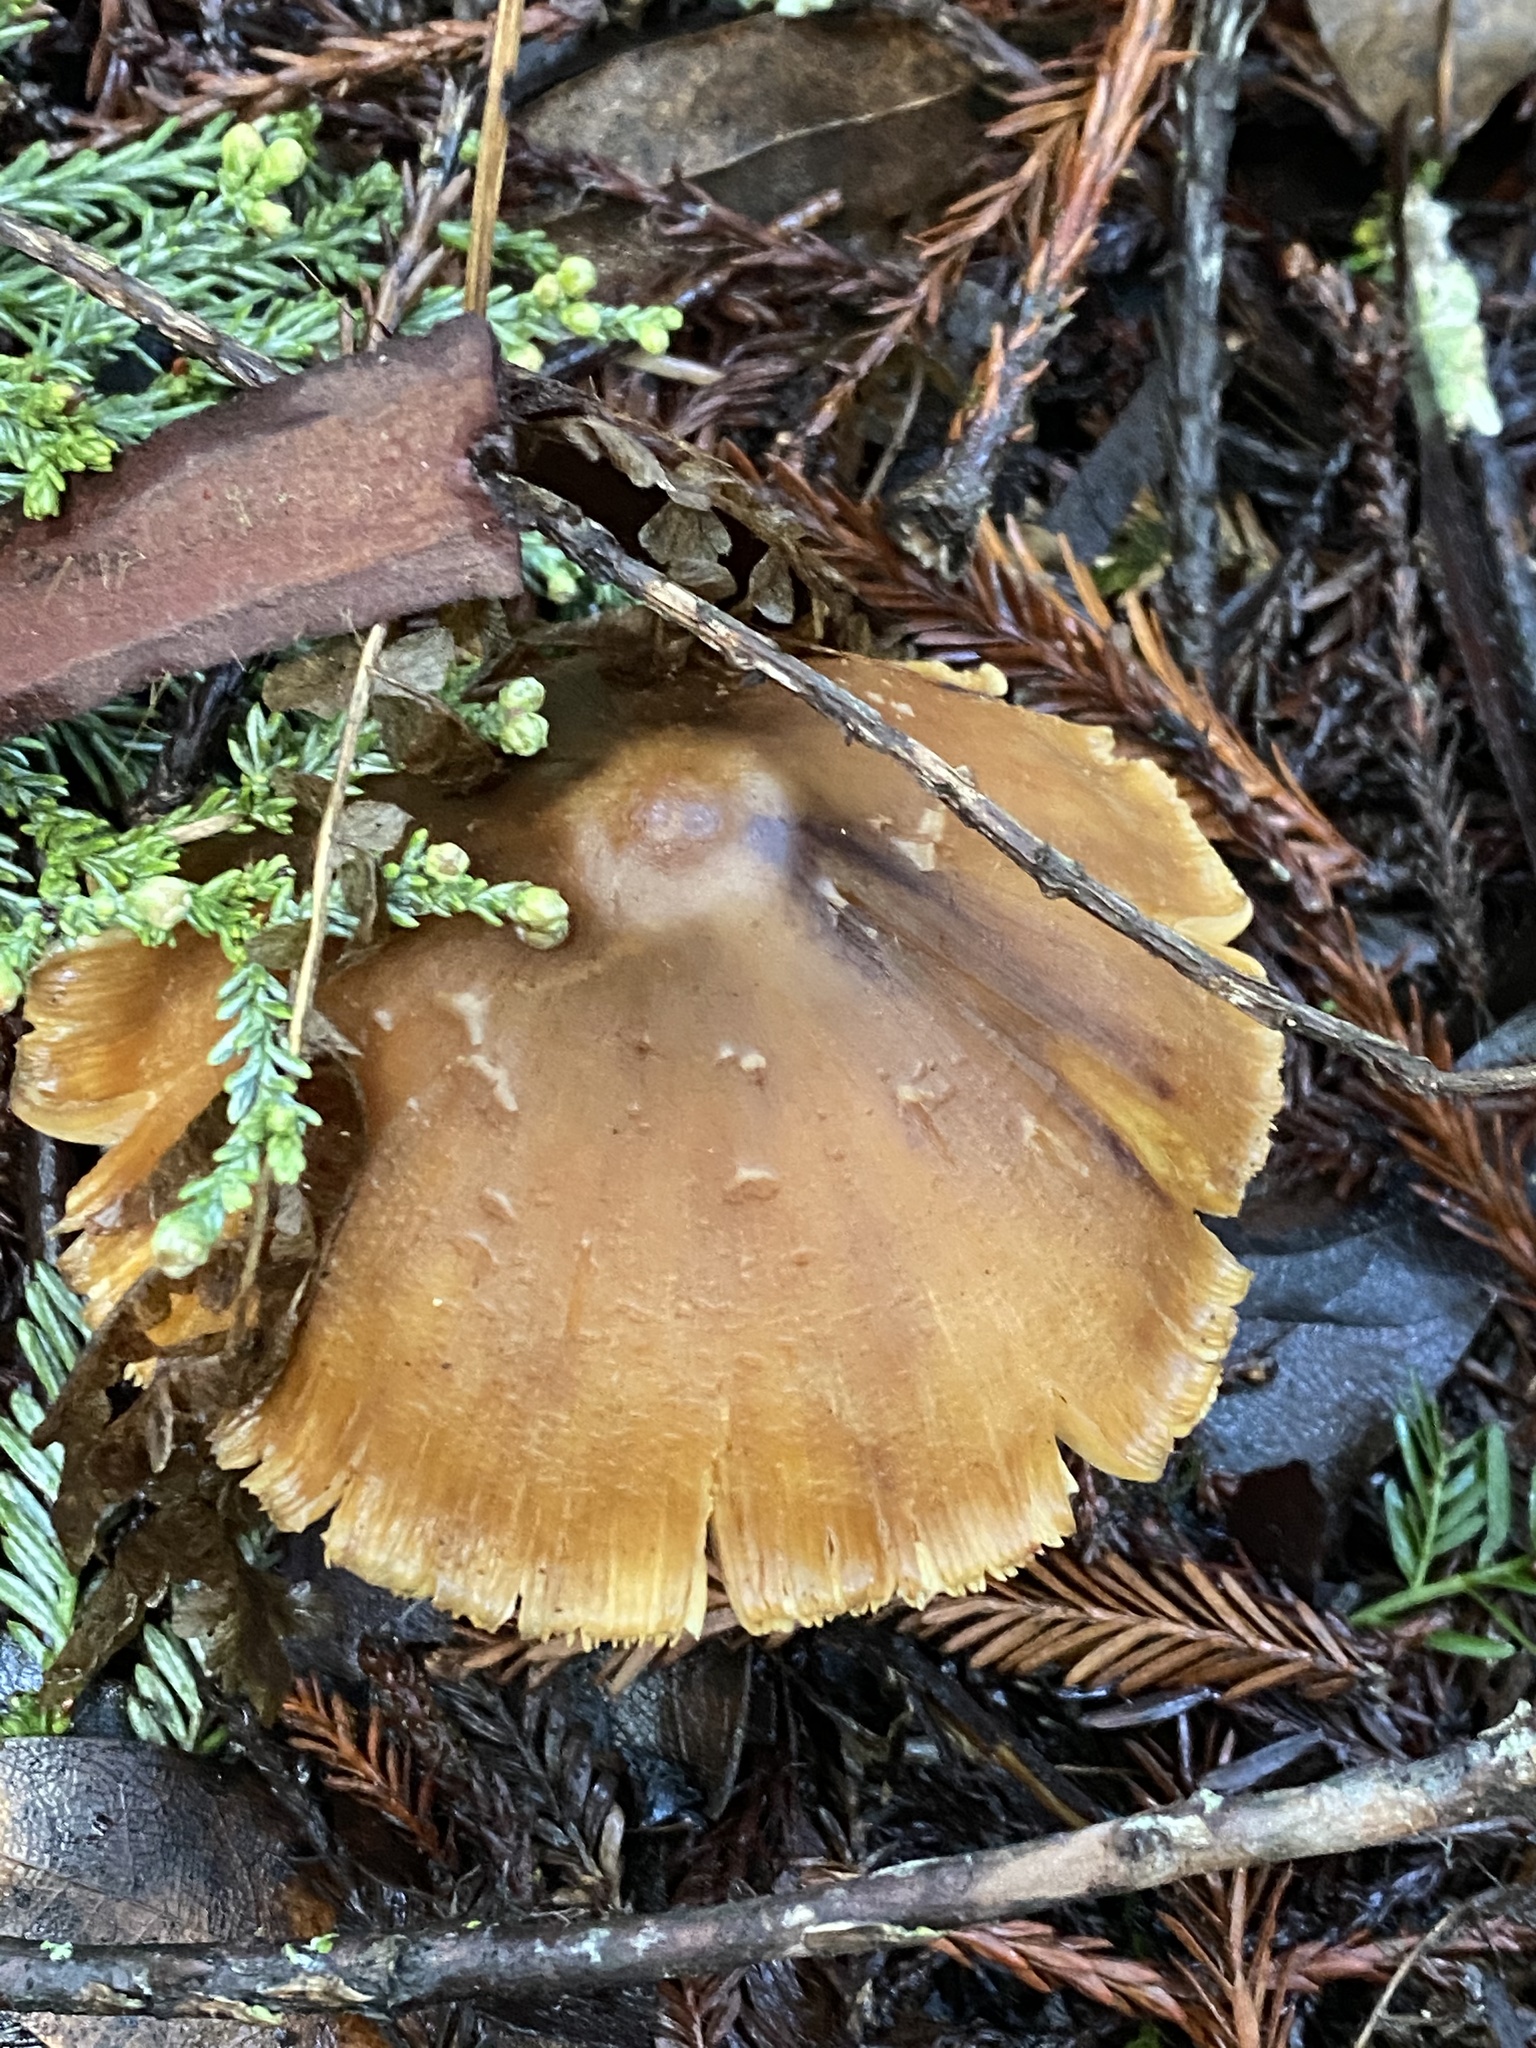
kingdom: Fungi
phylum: Basidiomycota
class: Agaricomycetes
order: Agaricales
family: Tricholomataceae
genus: Caulorhiza
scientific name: Caulorhiza umbonata
